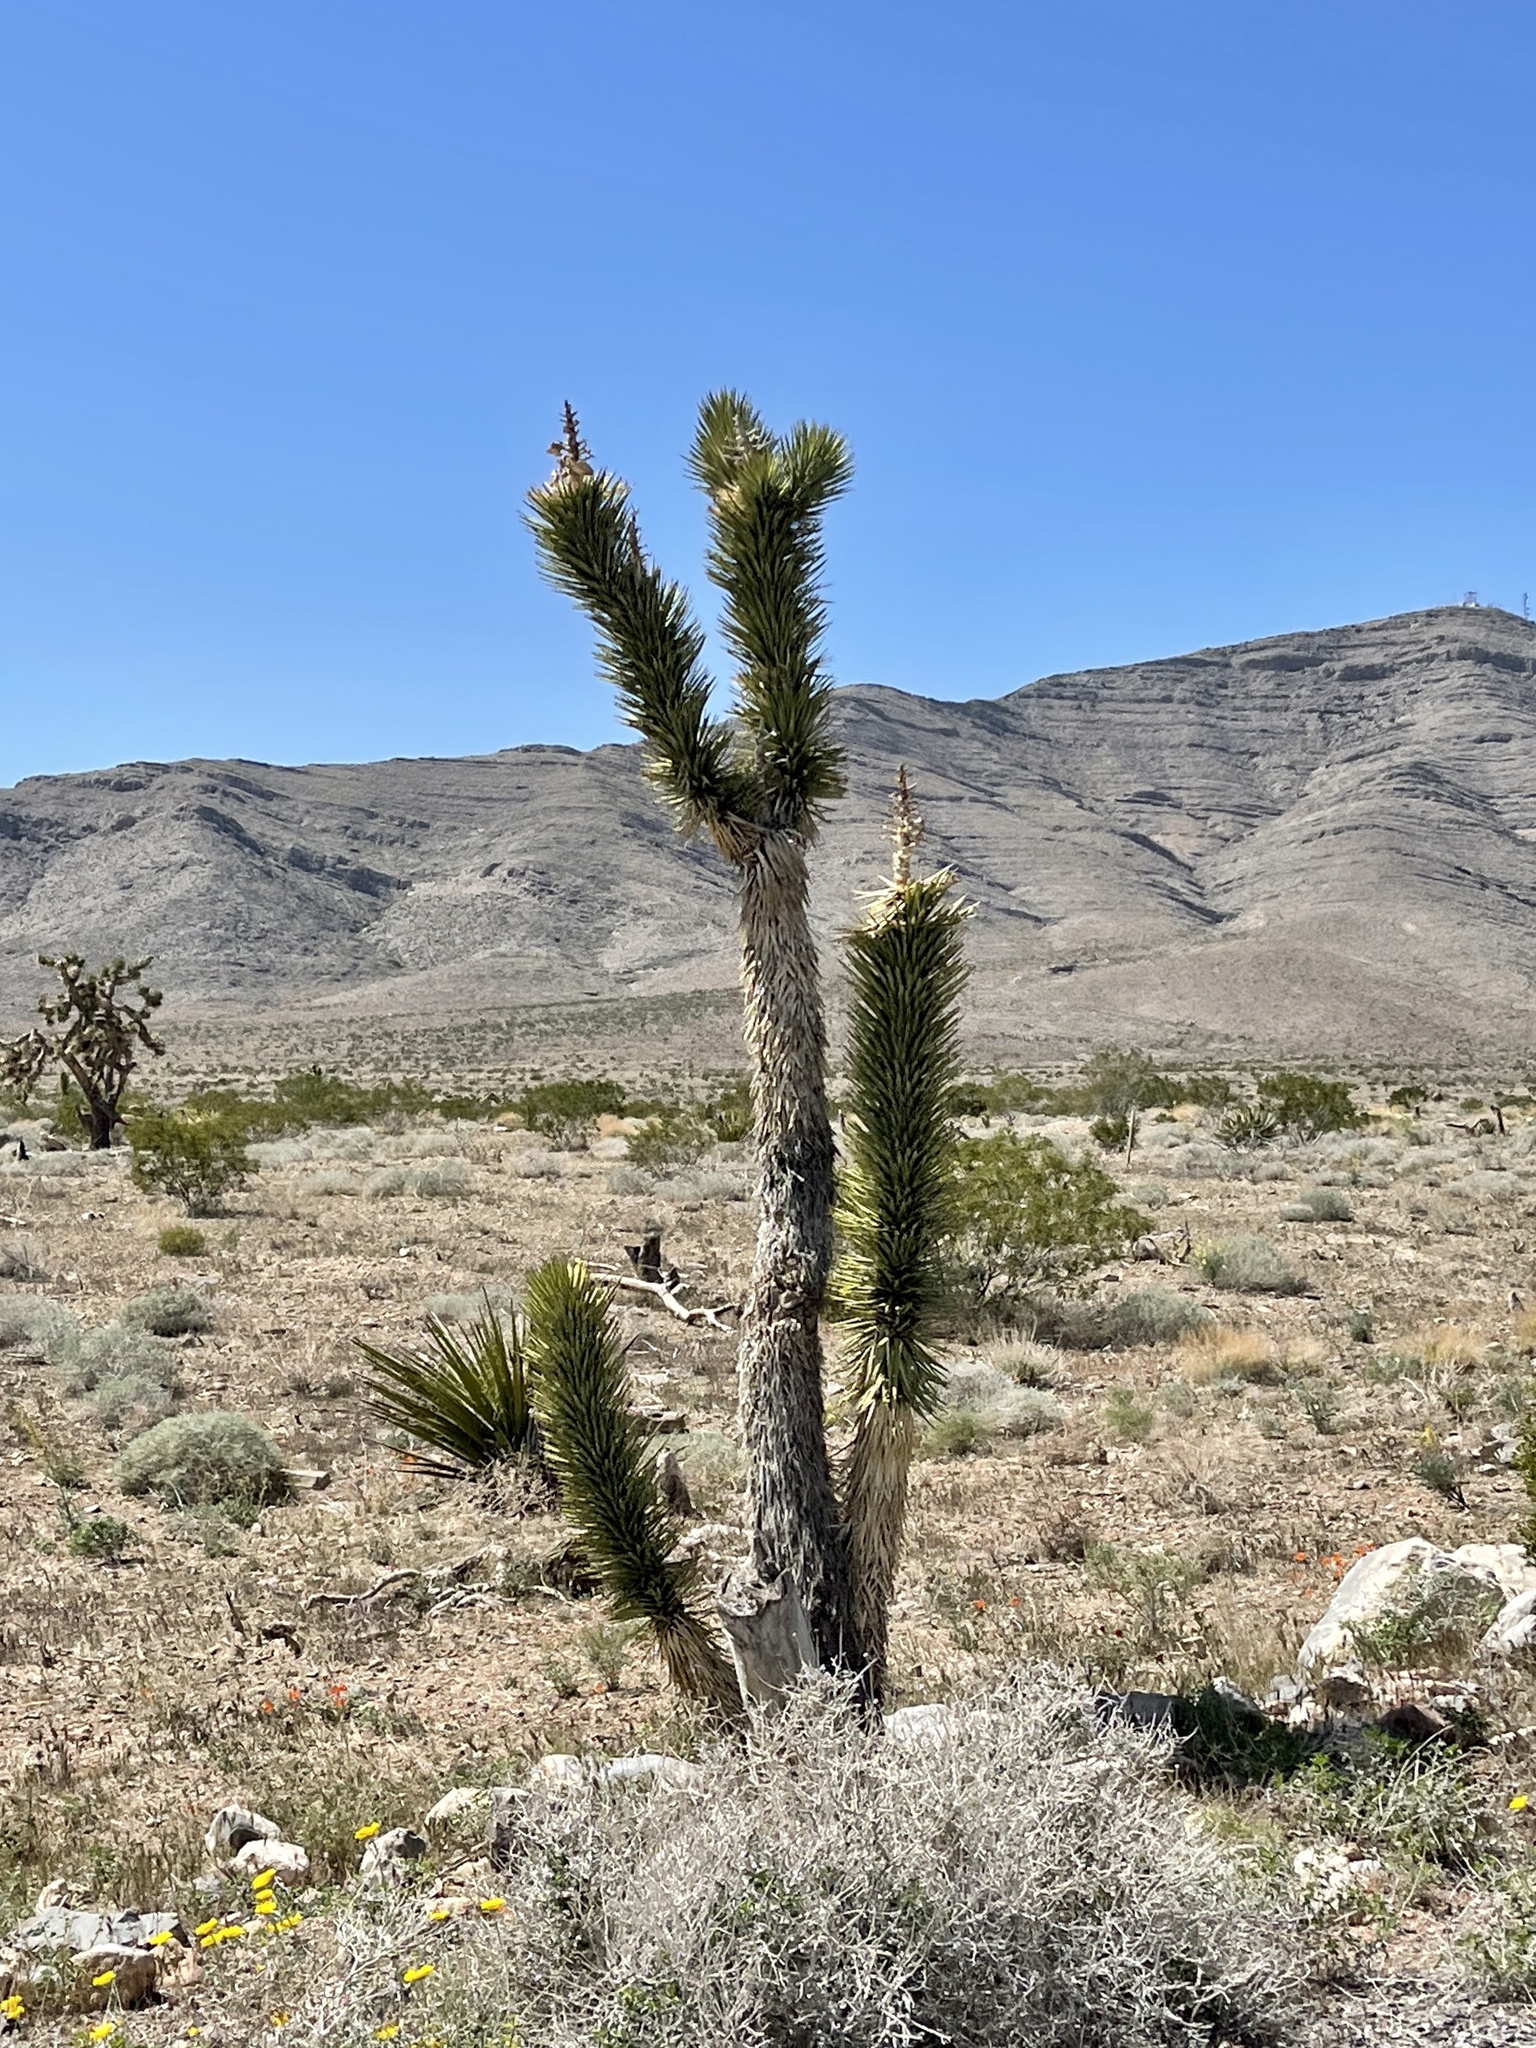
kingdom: Plantae
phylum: Tracheophyta
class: Liliopsida
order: Asparagales
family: Asparagaceae
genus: Yucca
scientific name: Yucca brevifolia
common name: Joshua tree
